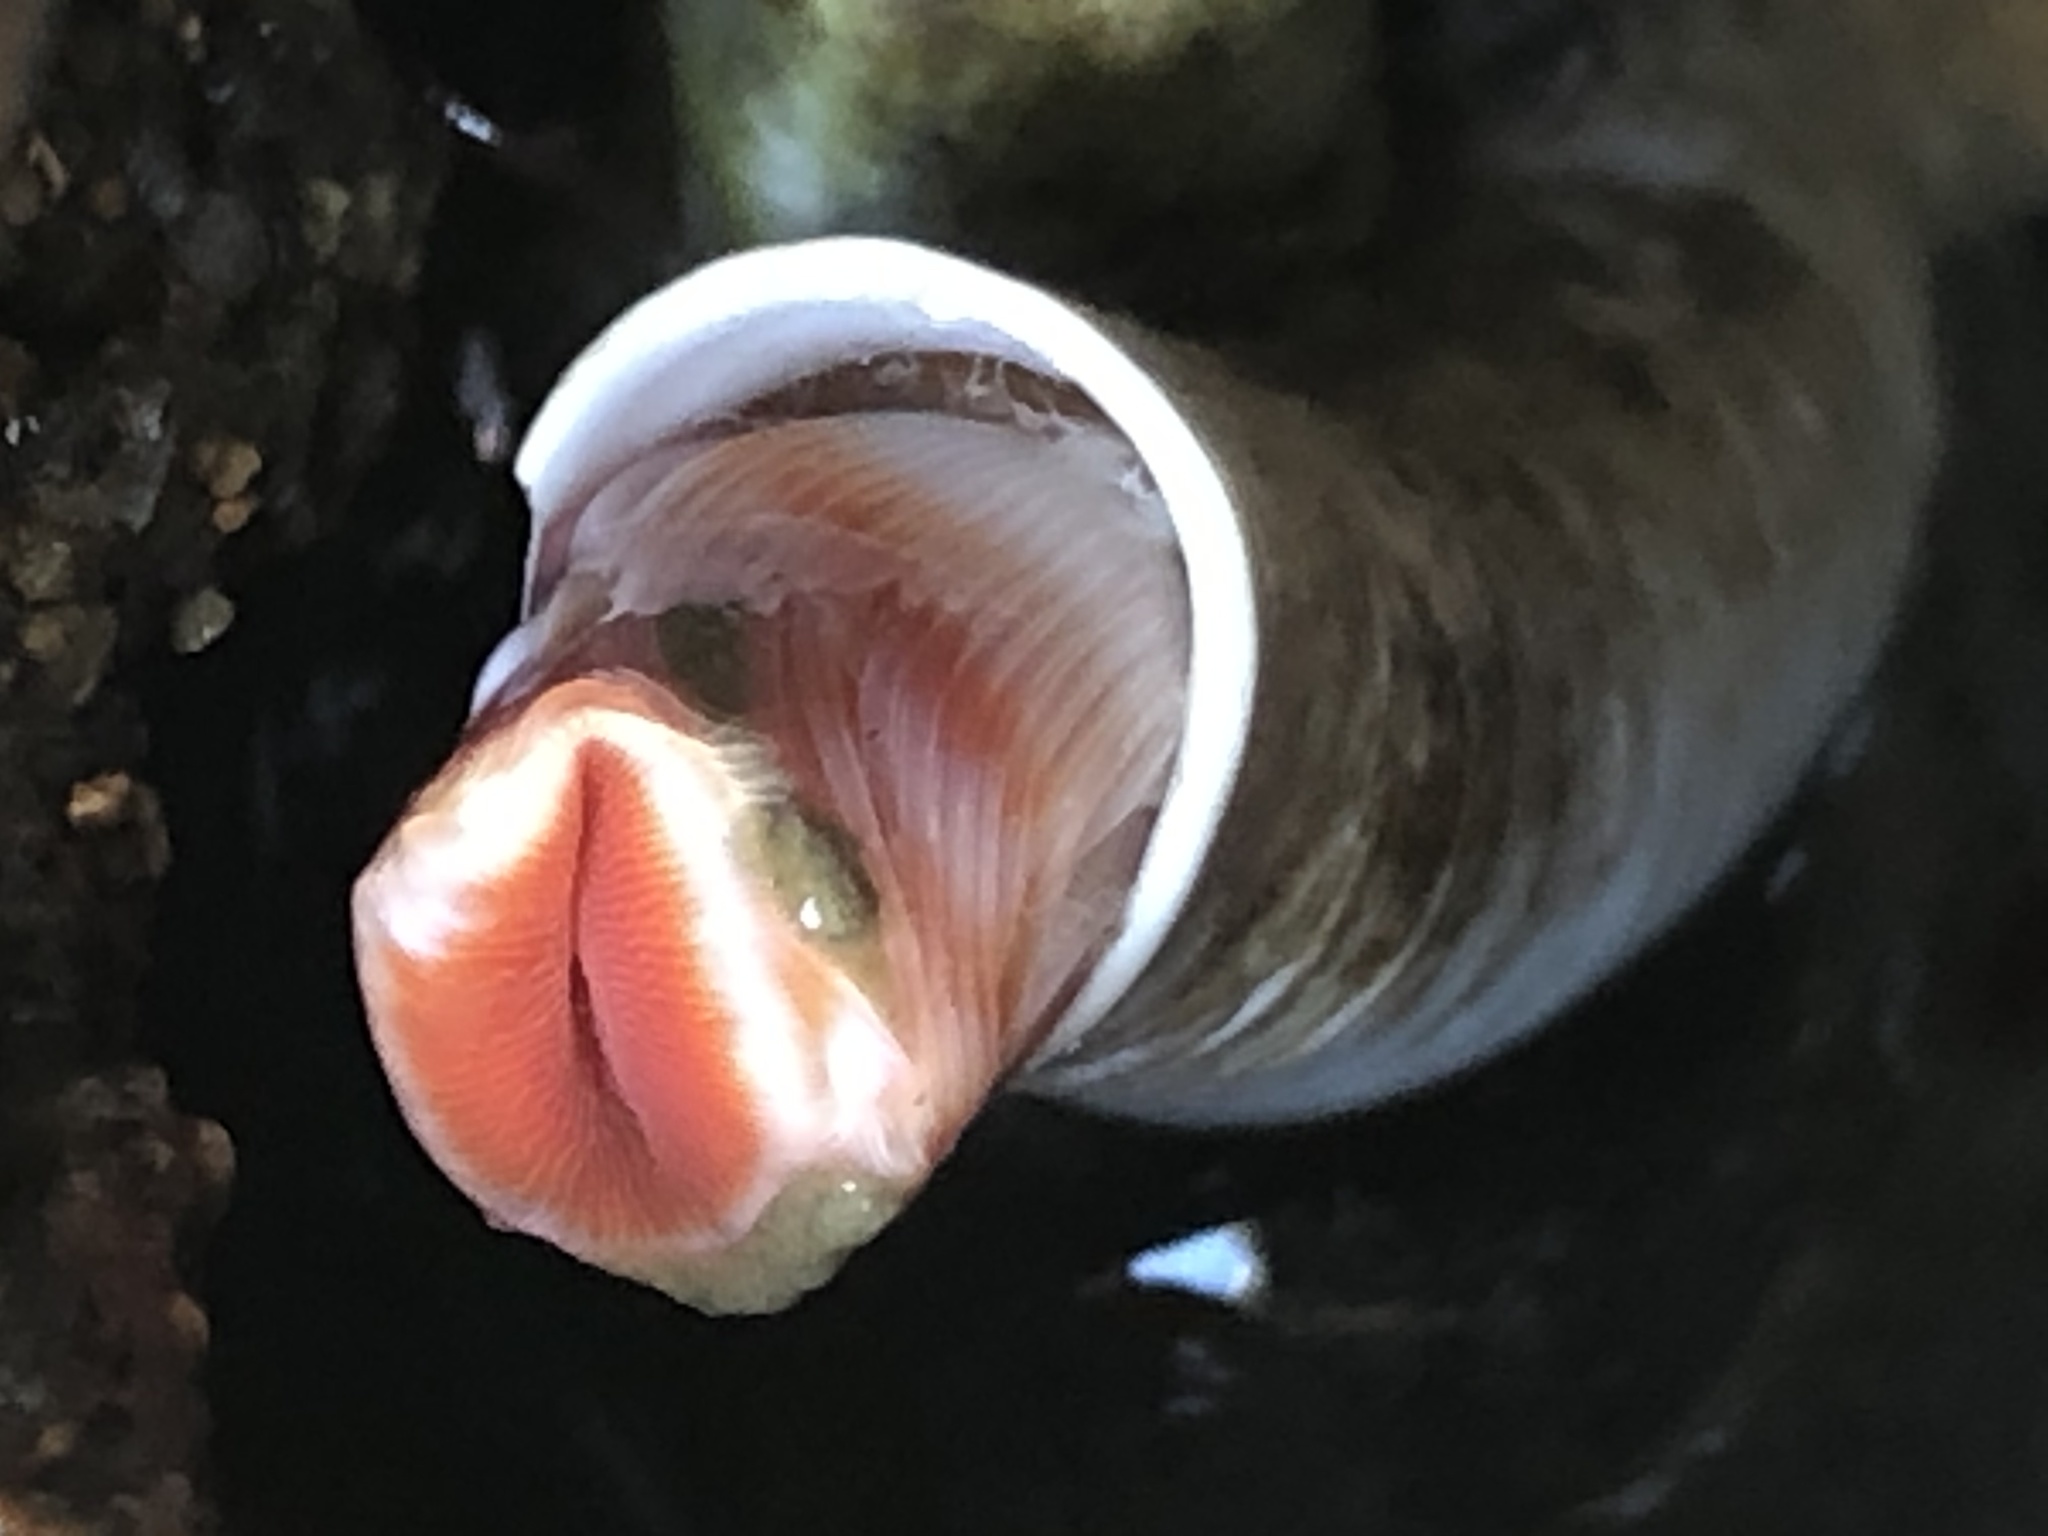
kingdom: Animalia
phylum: Annelida
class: Polychaeta
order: Sabellida
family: Serpulidae
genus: Serpula
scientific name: Serpula columbiana
